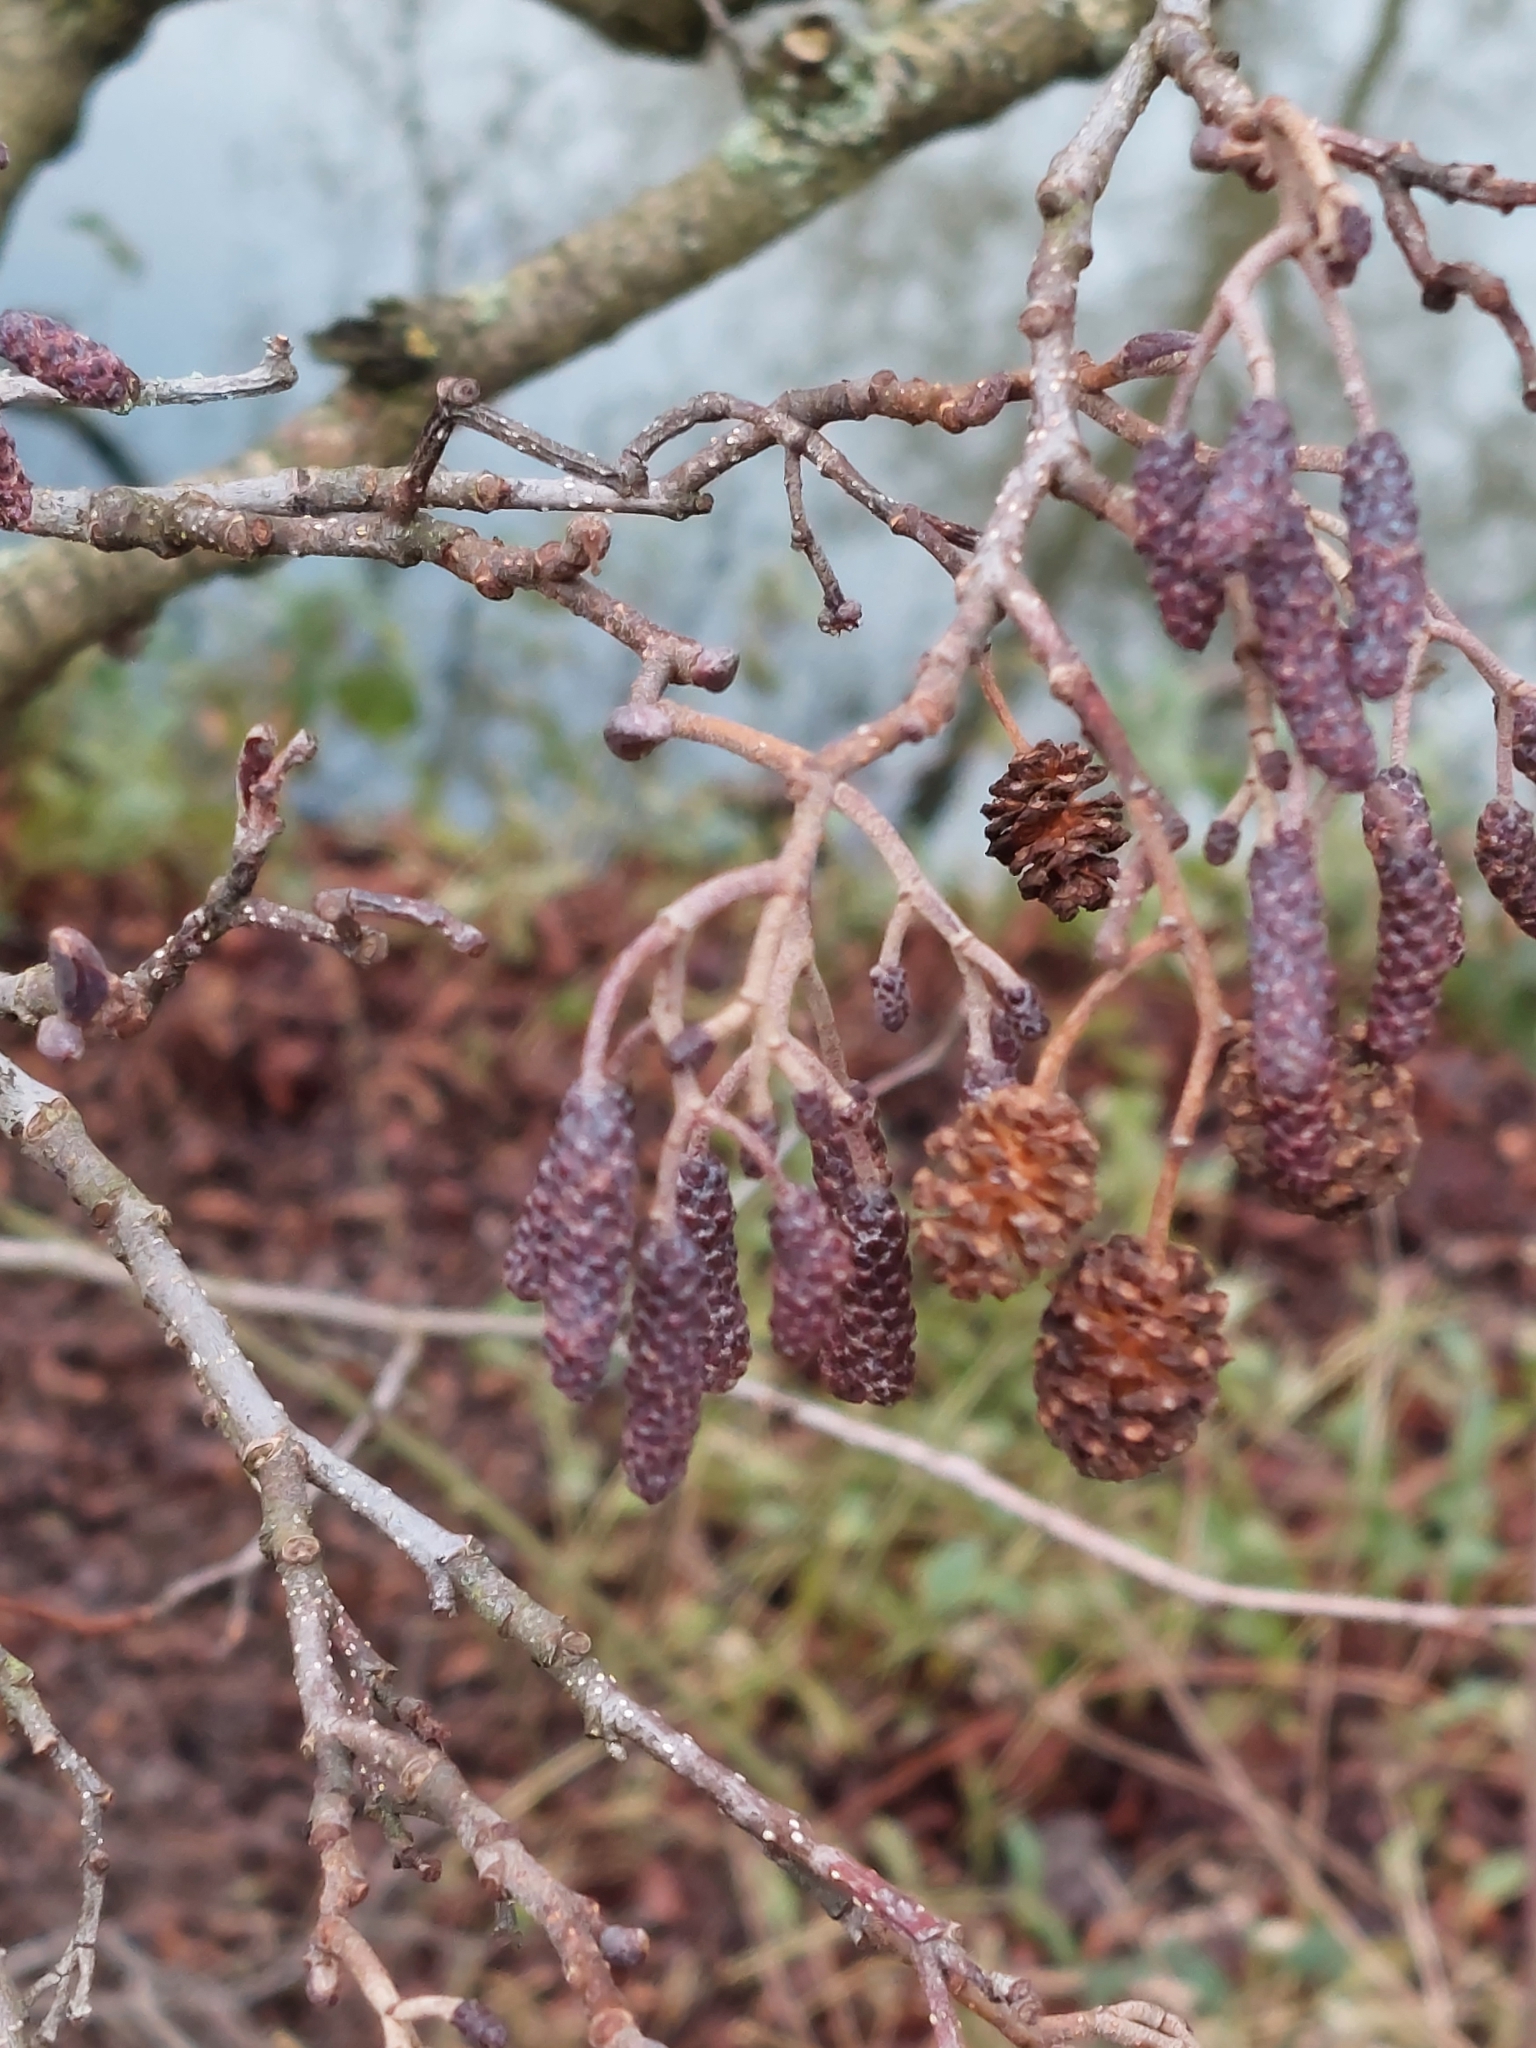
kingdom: Plantae
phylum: Tracheophyta
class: Magnoliopsida
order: Fagales
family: Betulaceae
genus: Alnus
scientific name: Alnus glutinosa
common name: Black alder
